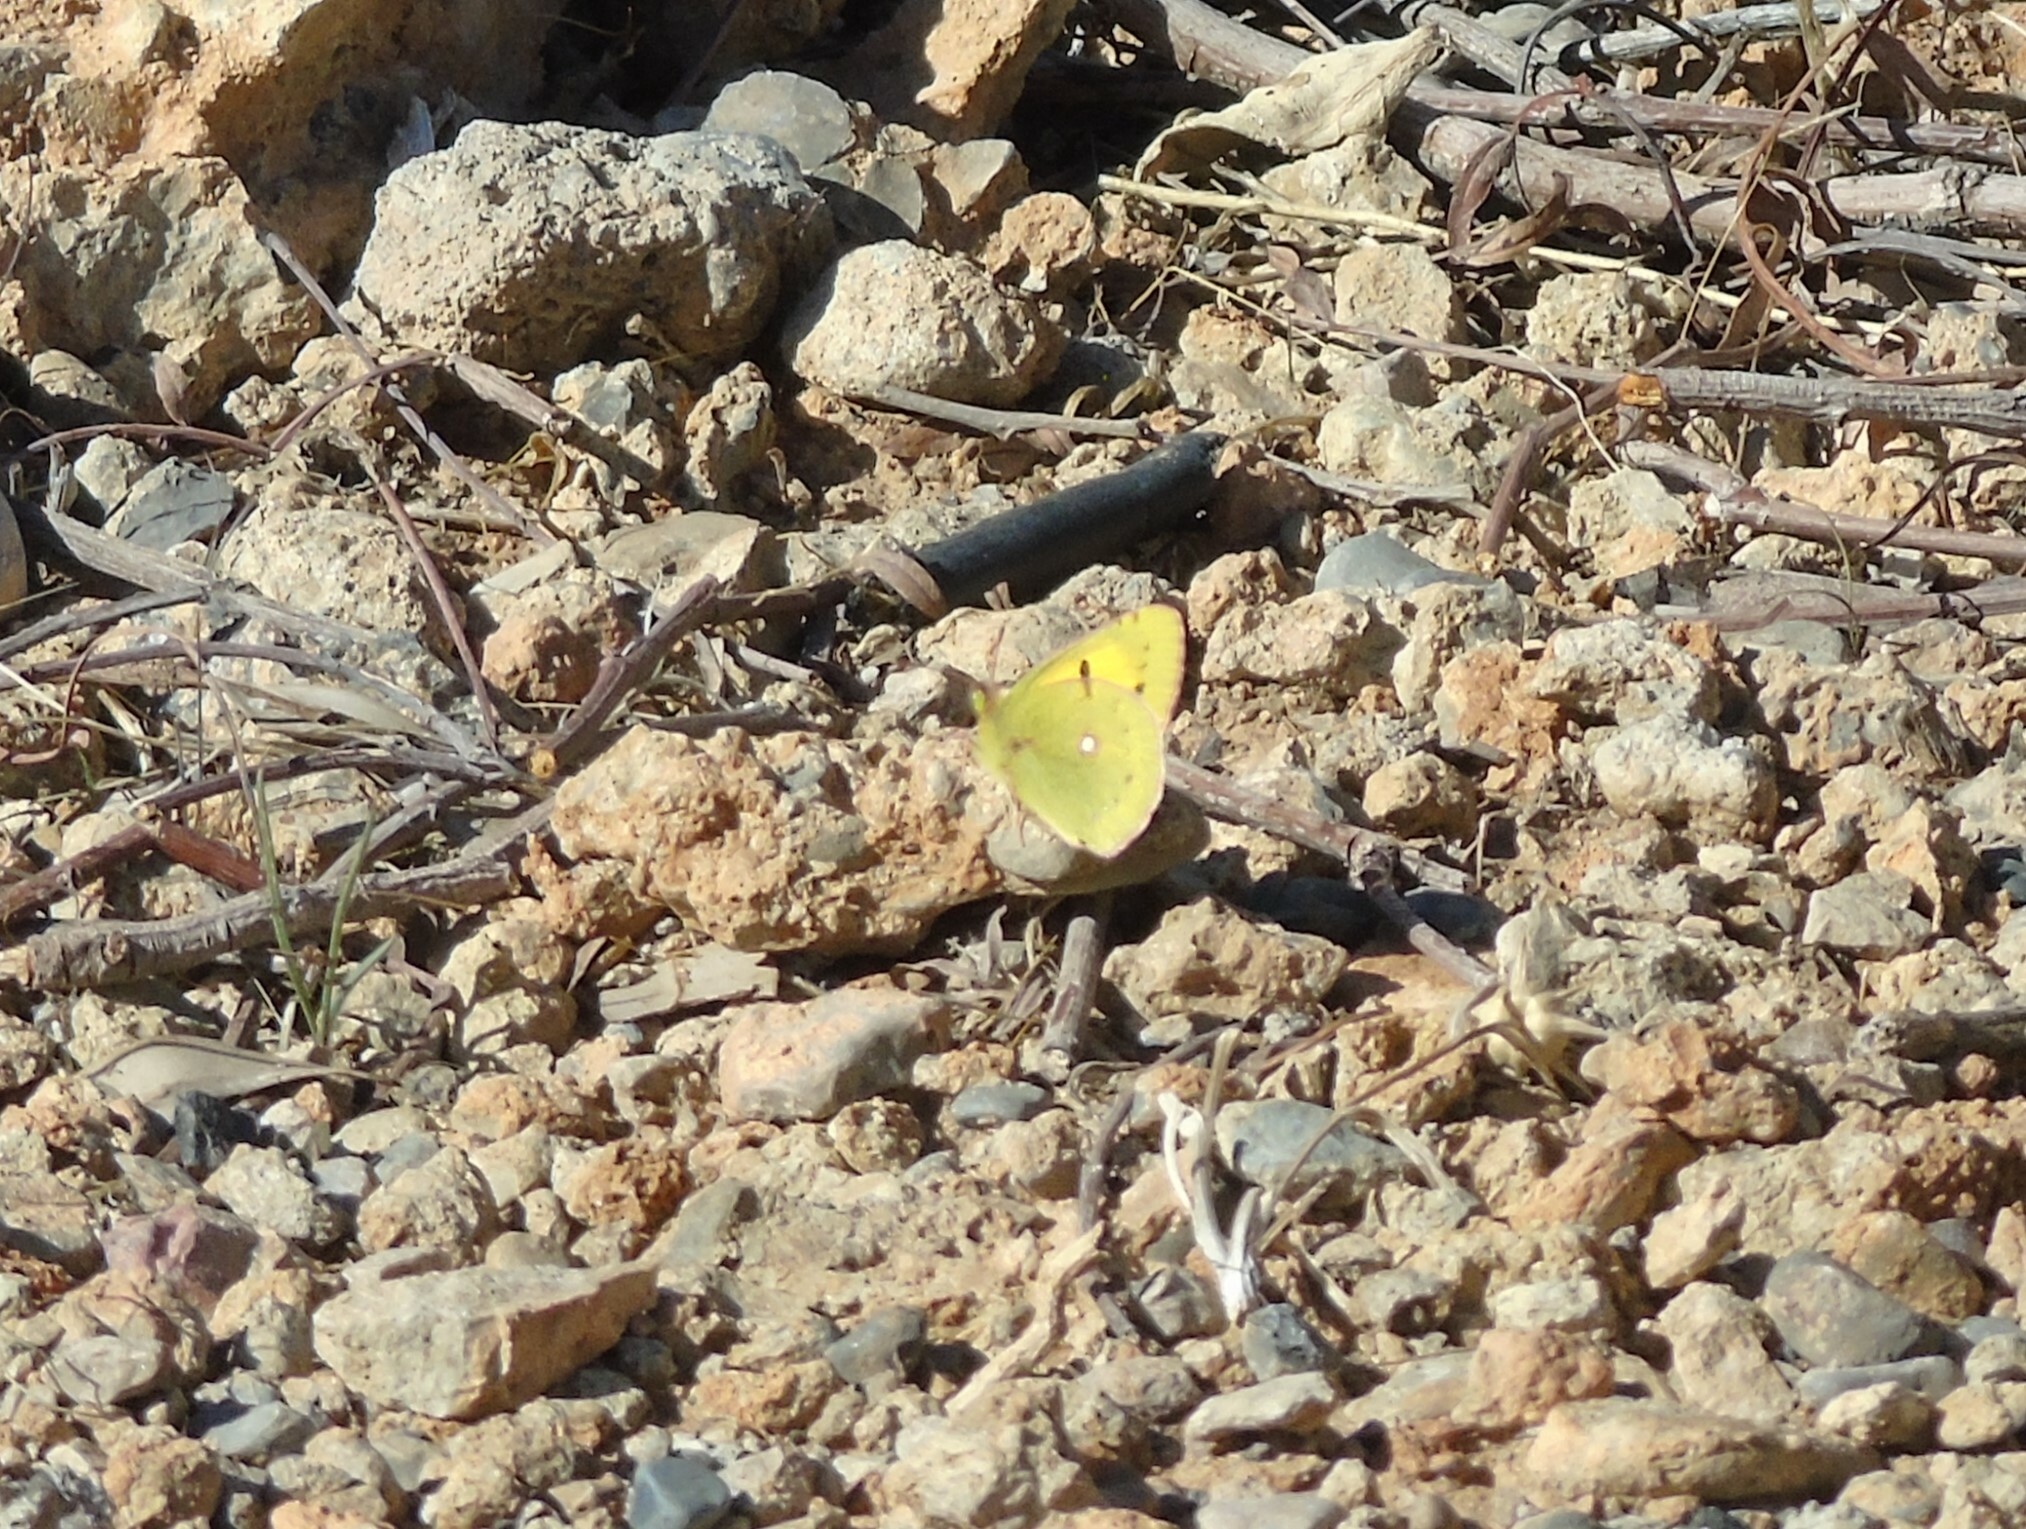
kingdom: Animalia
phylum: Arthropoda
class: Insecta
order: Lepidoptera
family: Pieridae
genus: Colias
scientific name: Colias croceus
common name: Clouded yellow
